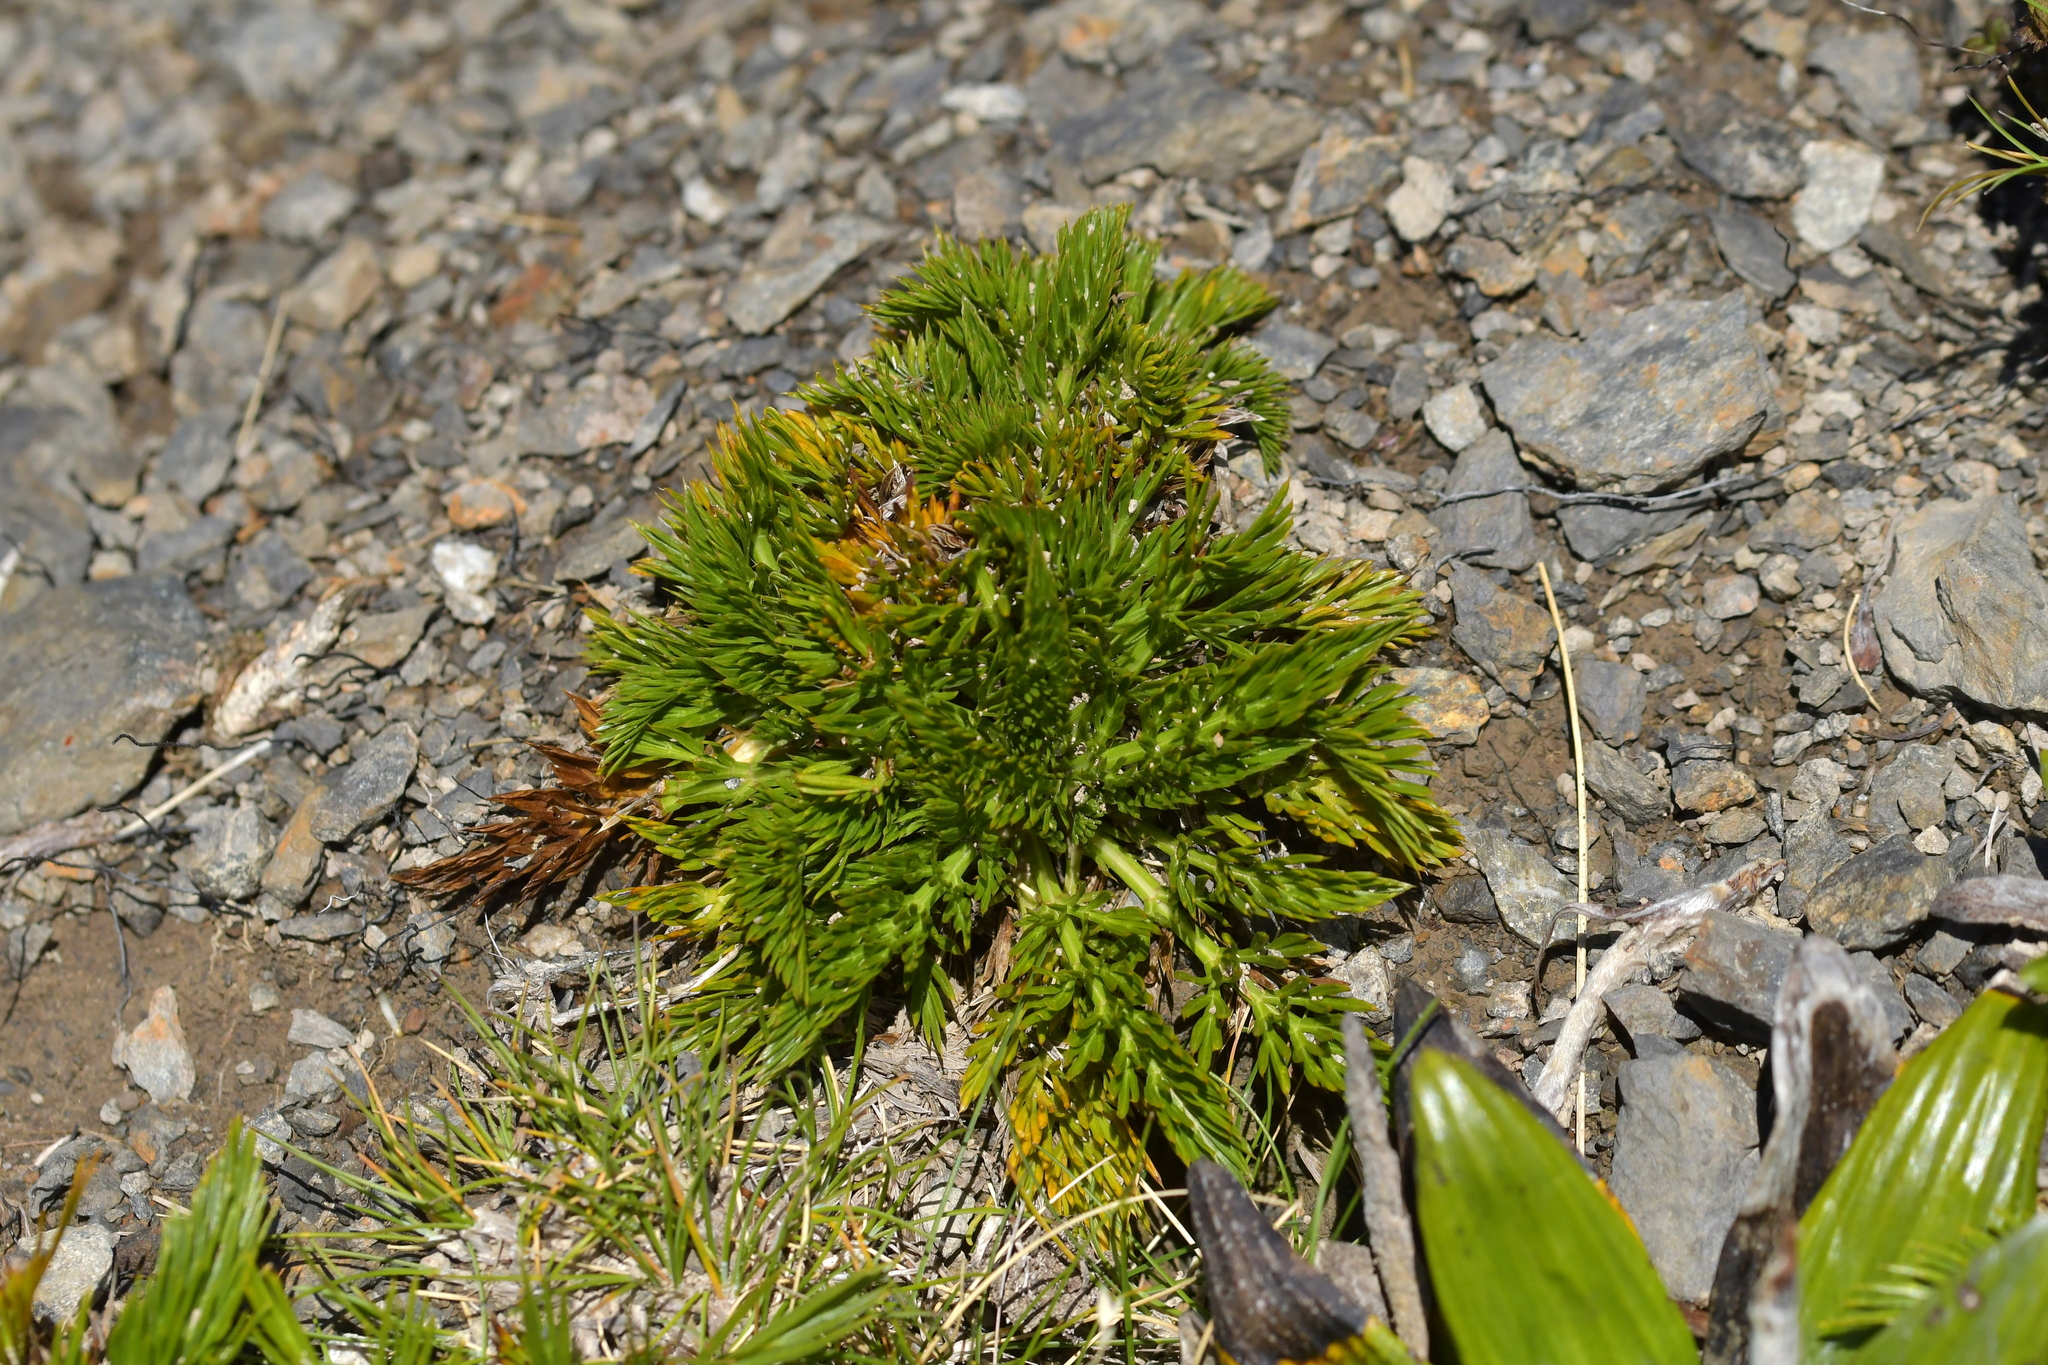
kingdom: Plantae
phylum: Tracheophyta
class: Magnoliopsida
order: Apiales
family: Apiaceae
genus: Aciphylla
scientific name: Aciphylla dissecta
